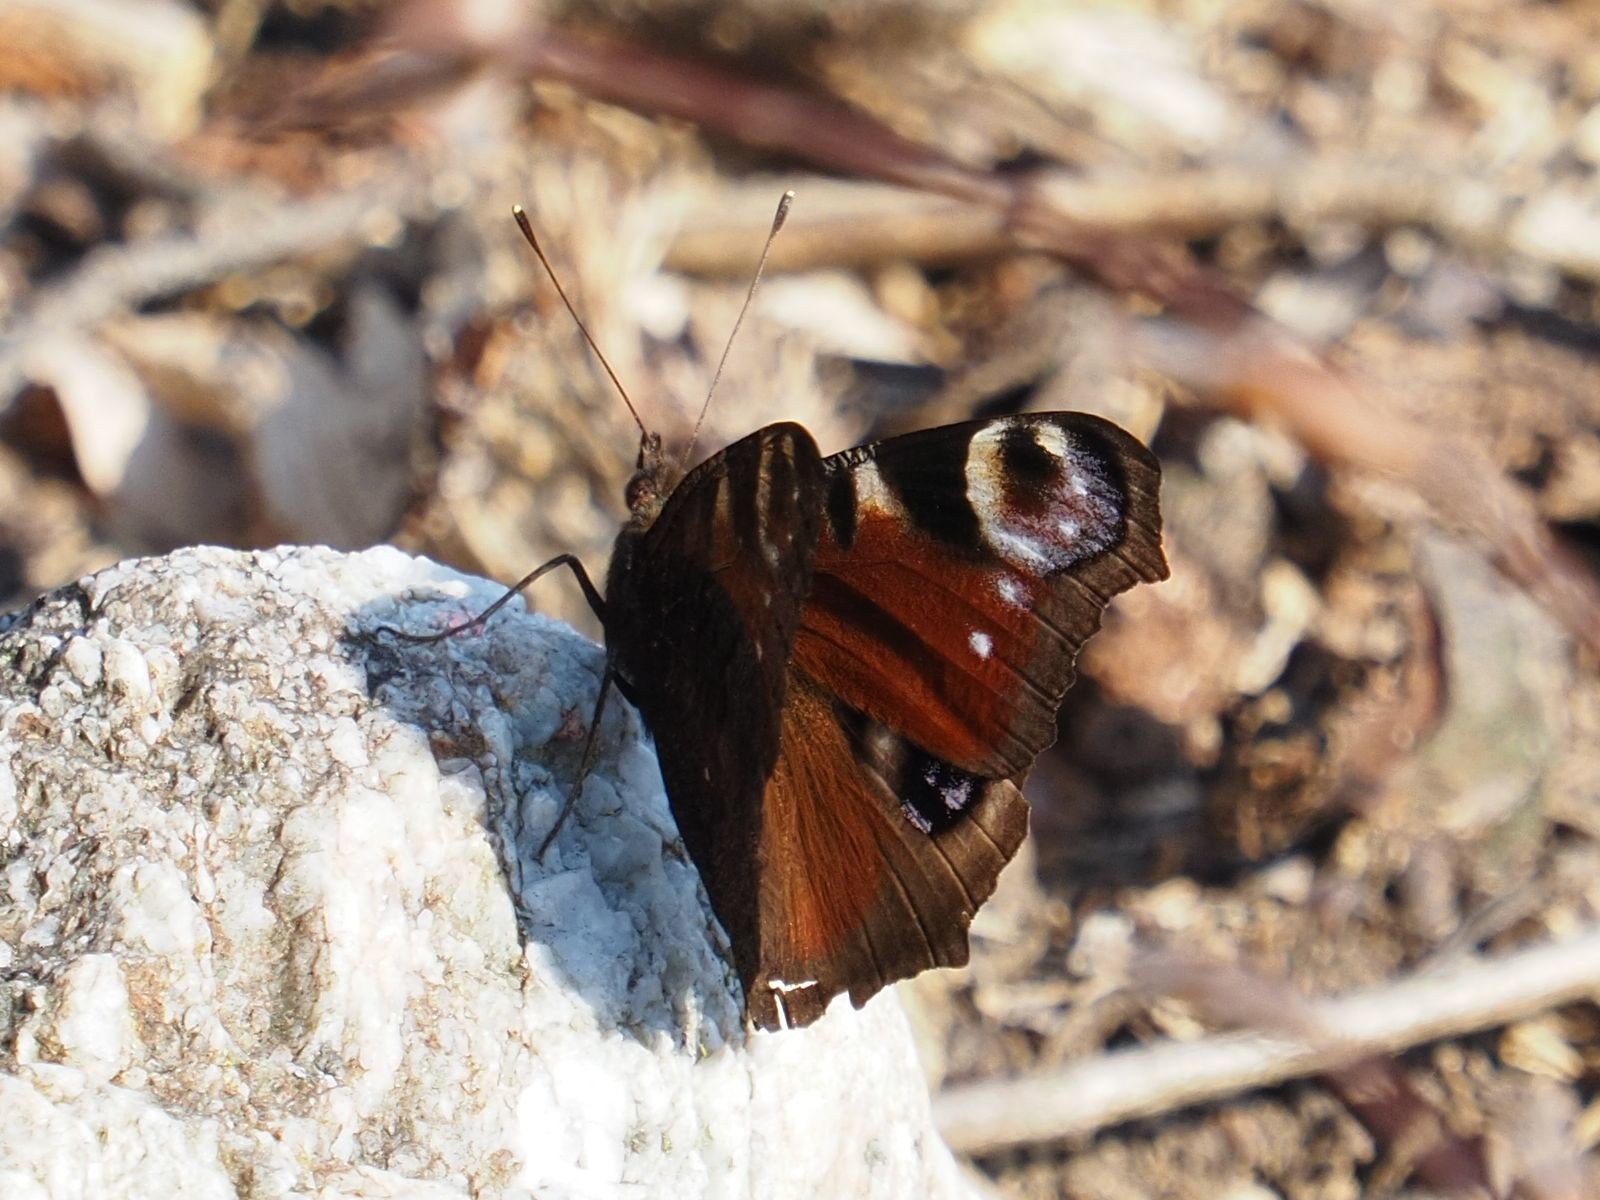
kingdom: Animalia
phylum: Arthropoda
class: Insecta
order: Lepidoptera
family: Nymphalidae
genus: Aglais
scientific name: Aglais io
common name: Peacock
